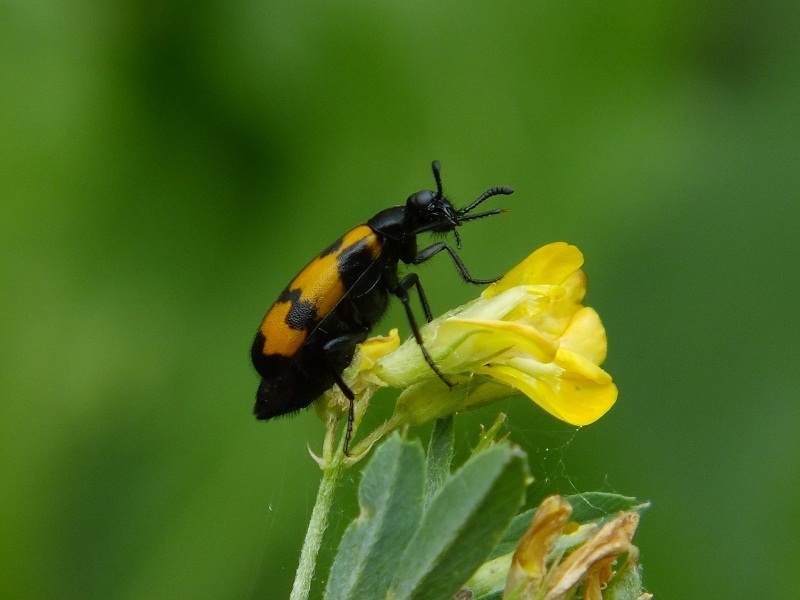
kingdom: Animalia
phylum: Arthropoda
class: Insecta
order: Coleoptera
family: Meloidae
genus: Mylabris
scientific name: Mylabris pusilla
